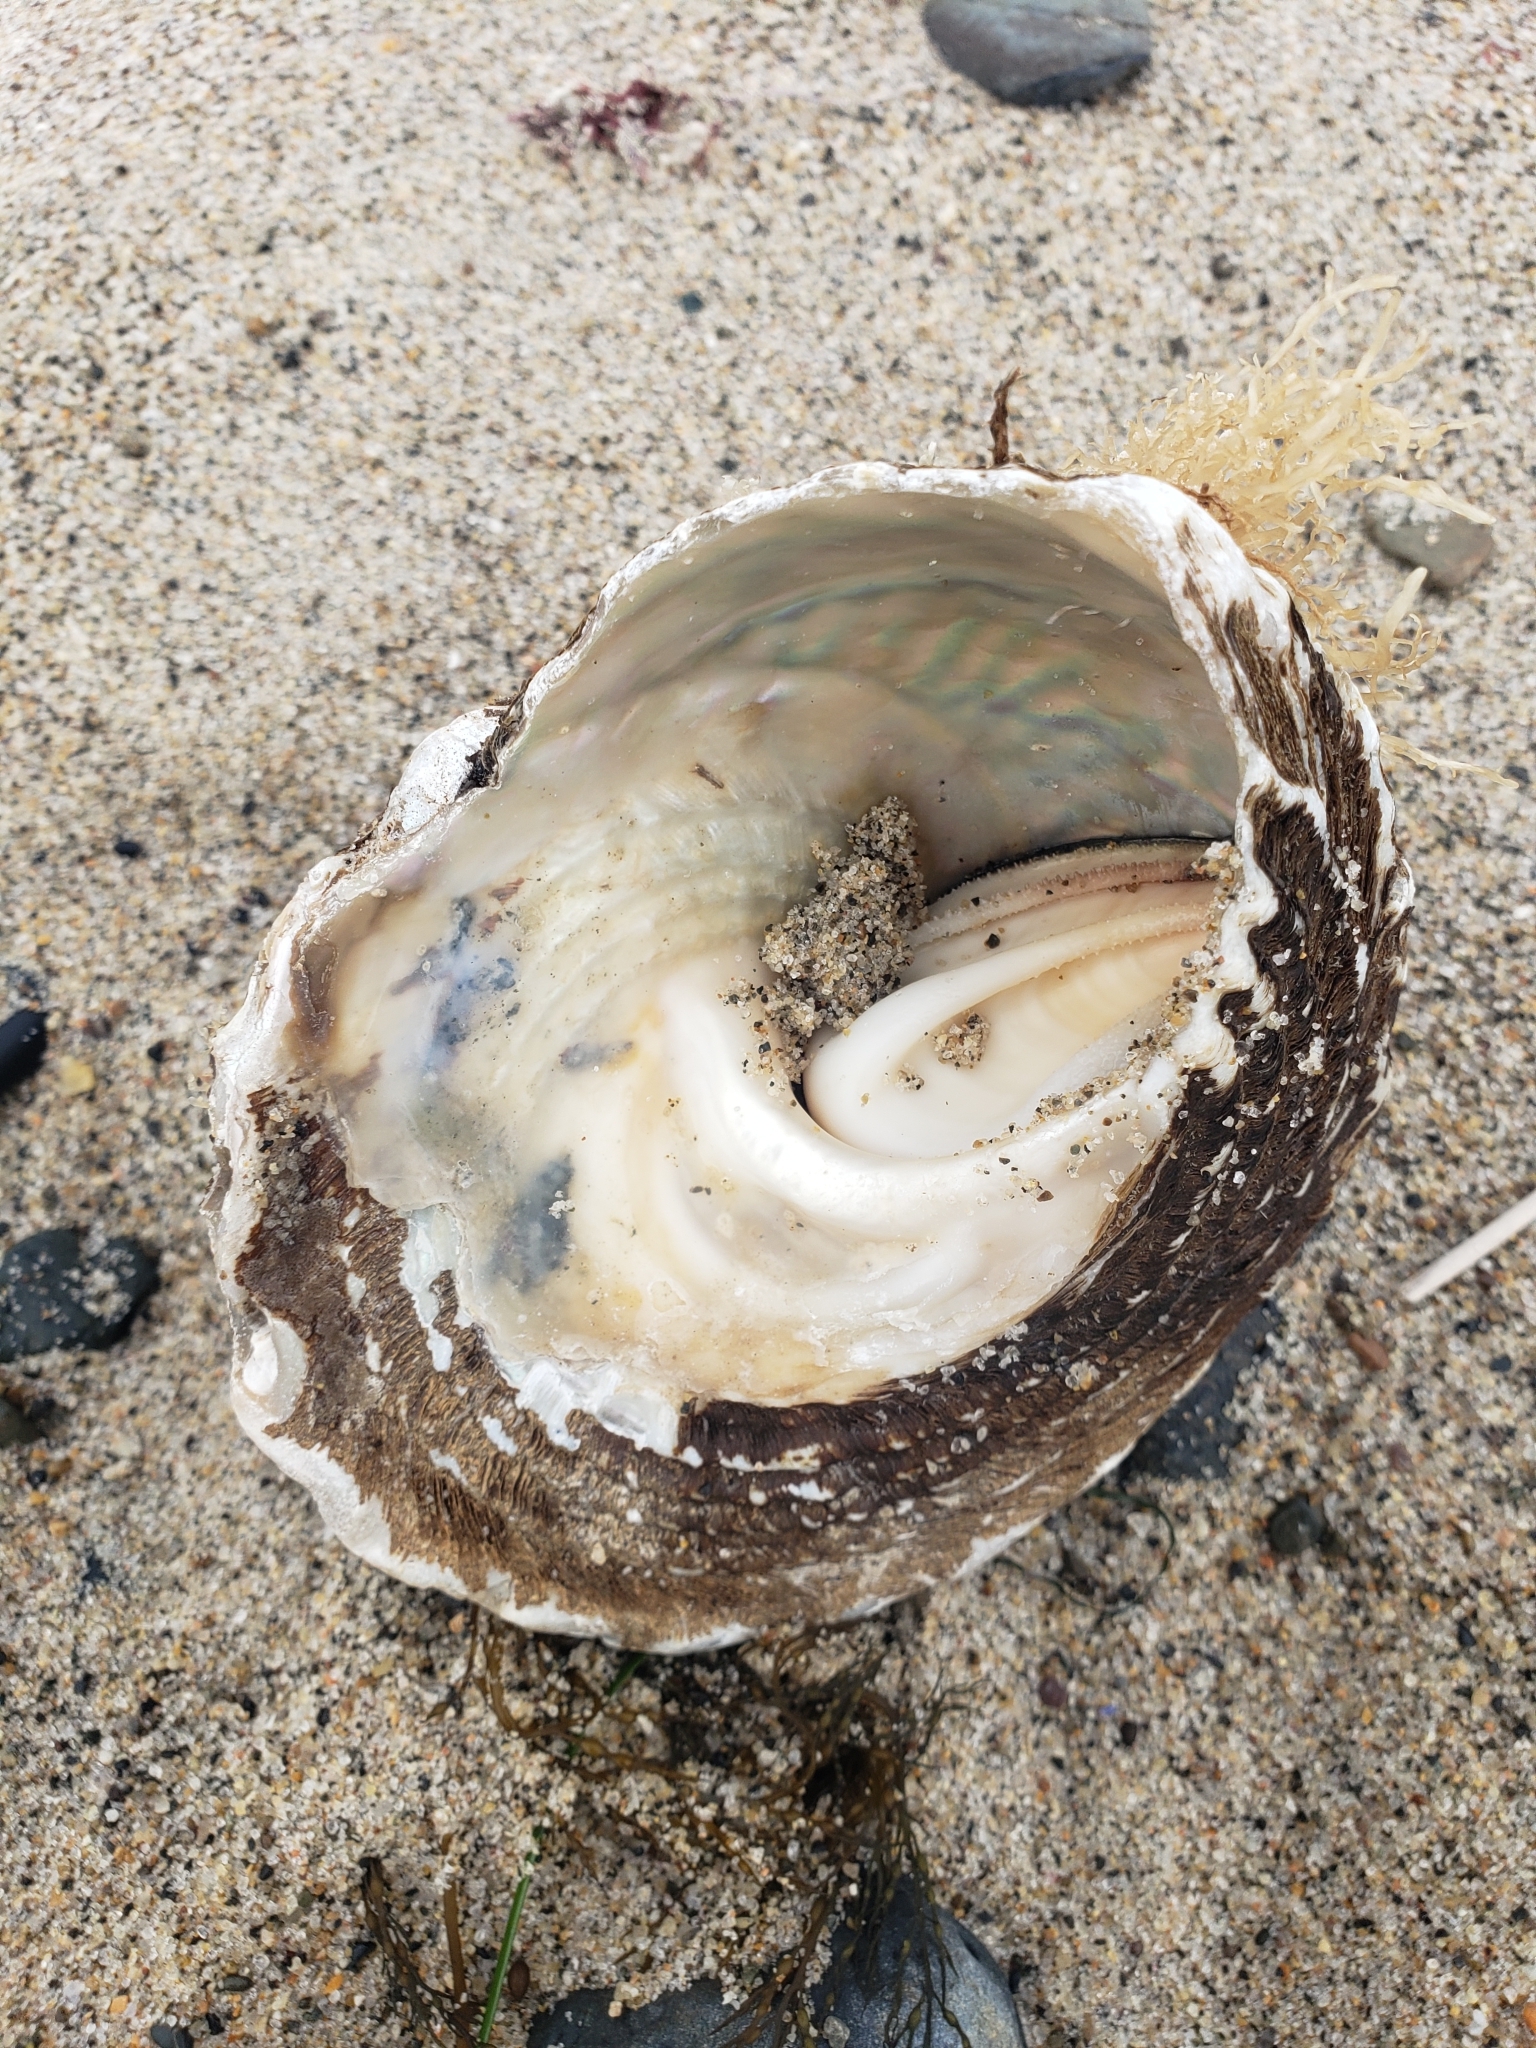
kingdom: Animalia
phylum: Mollusca
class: Gastropoda
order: Trochida
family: Turbinidae
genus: Megastraea
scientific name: Megastraea undosa
